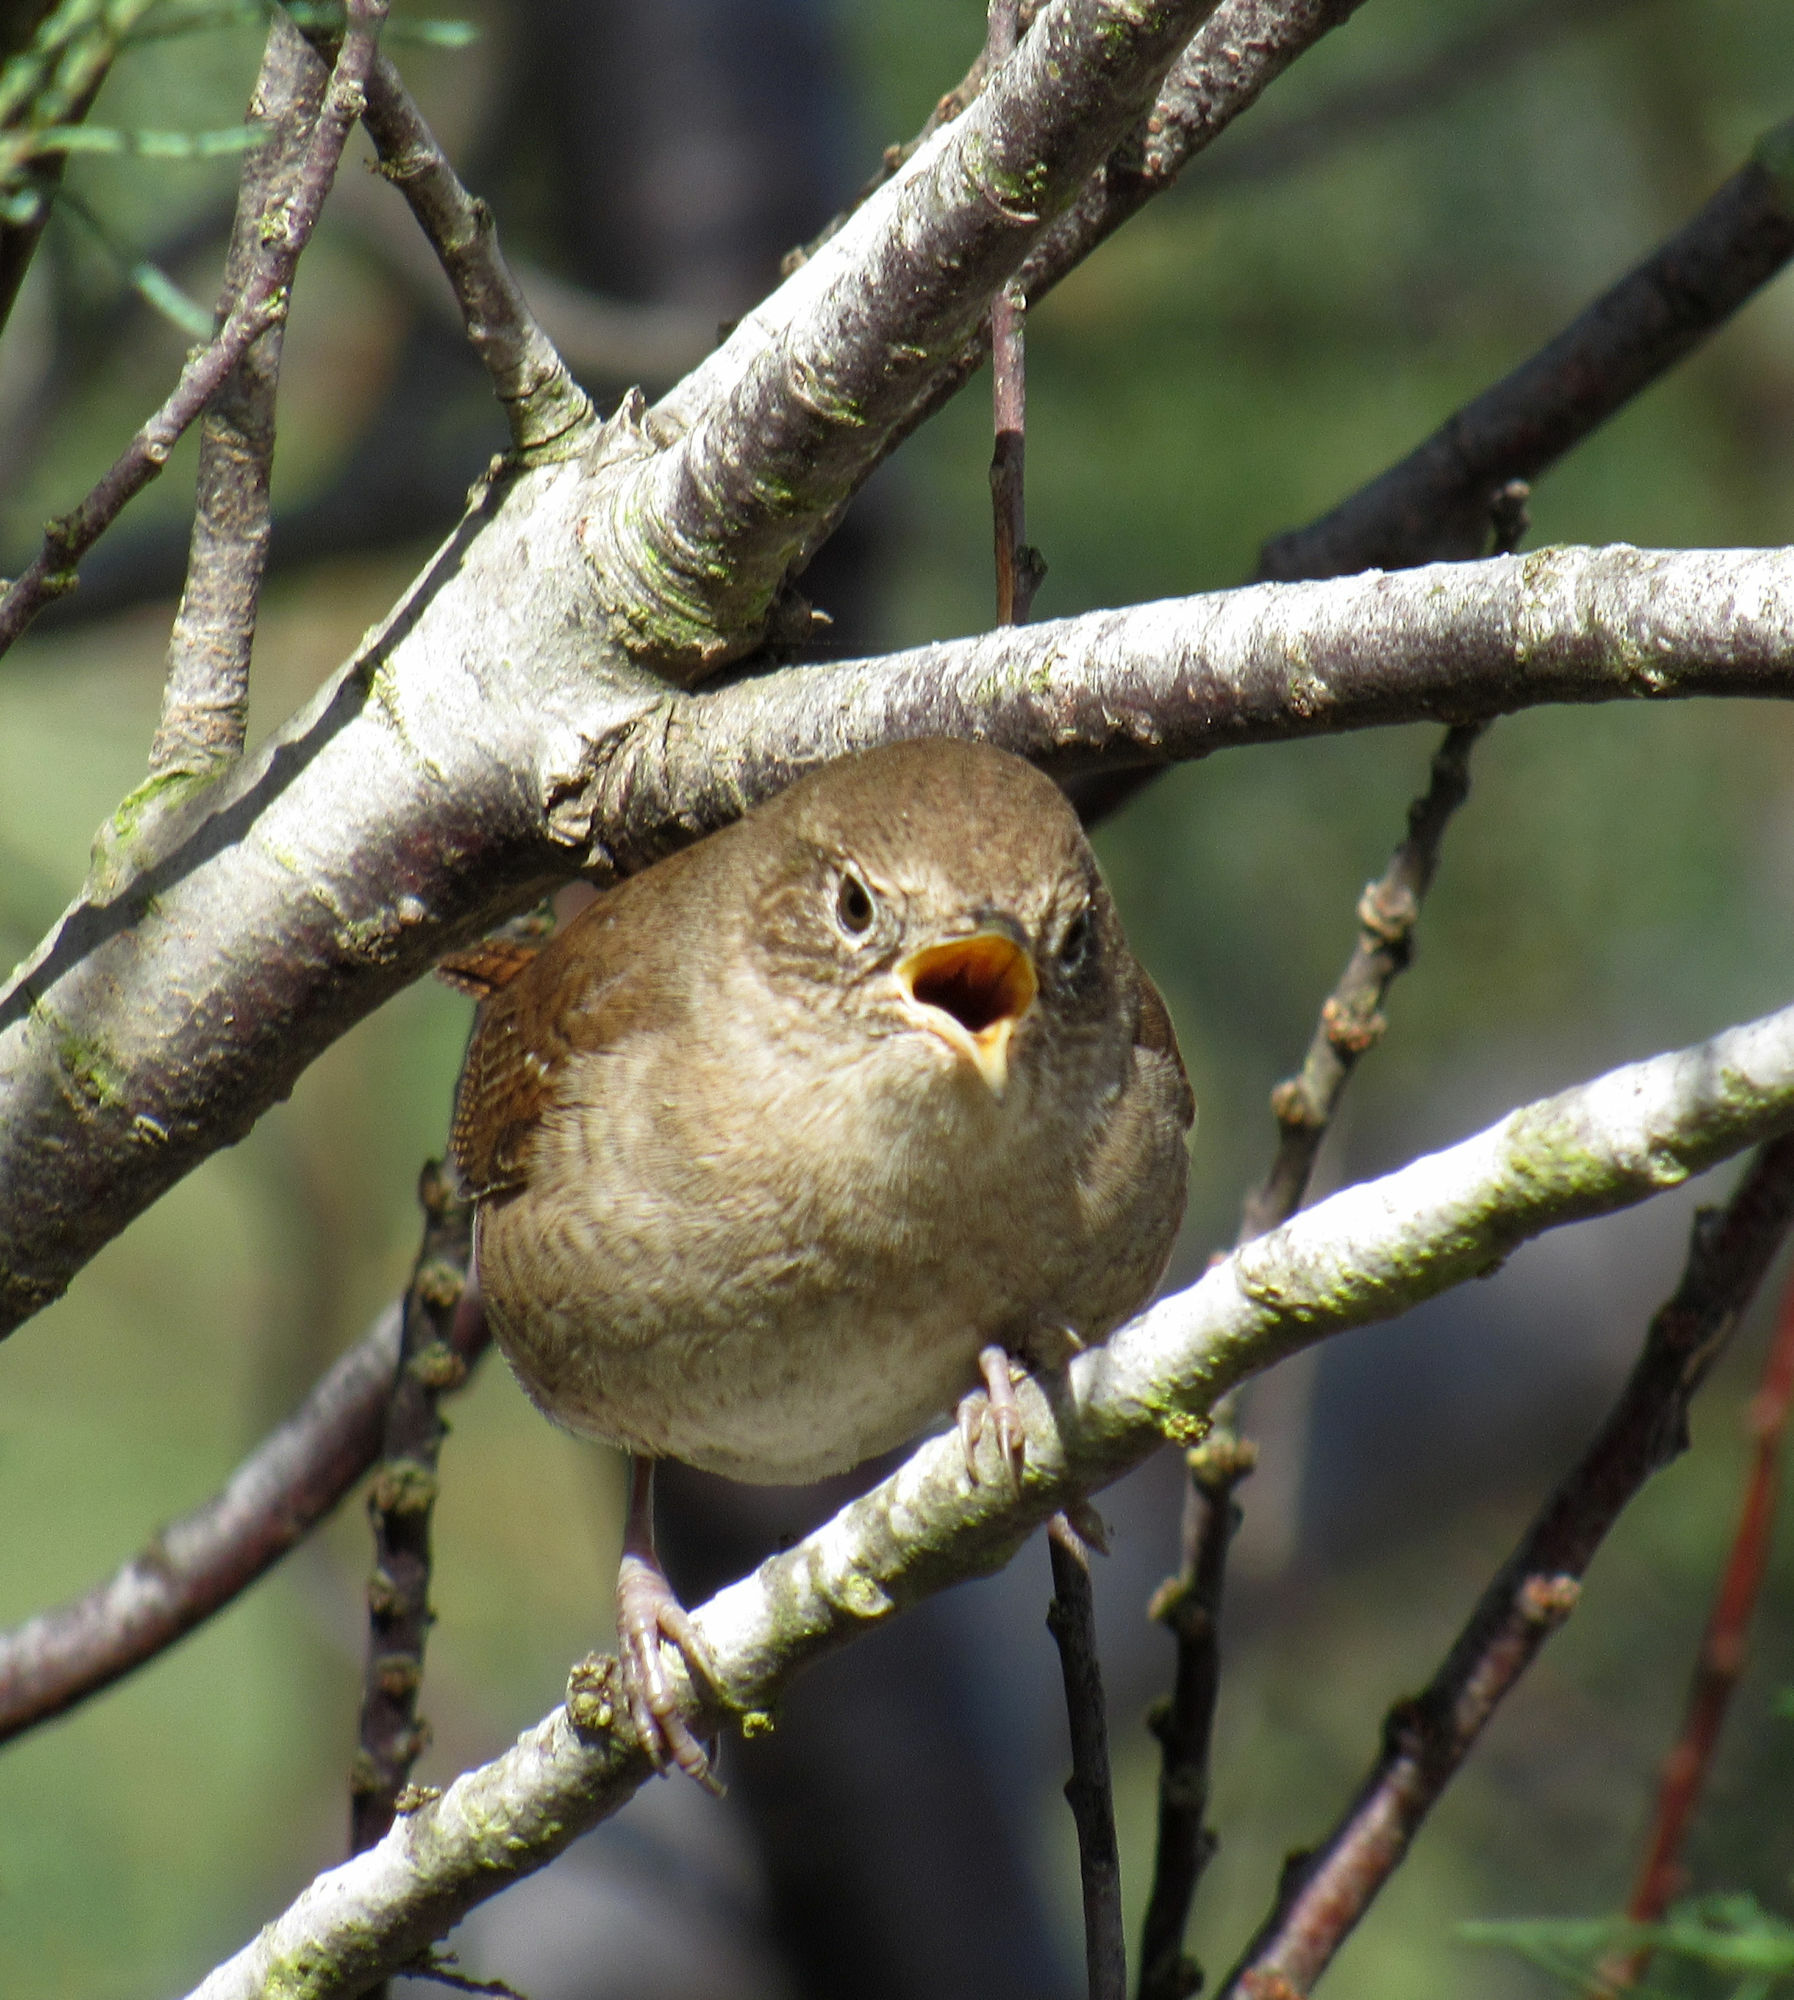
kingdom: Animalia
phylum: Chordata
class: Aves
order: Passeriformes
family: Troglodytidae
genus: Troglodytes
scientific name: Troglodytes aedon
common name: House wren
